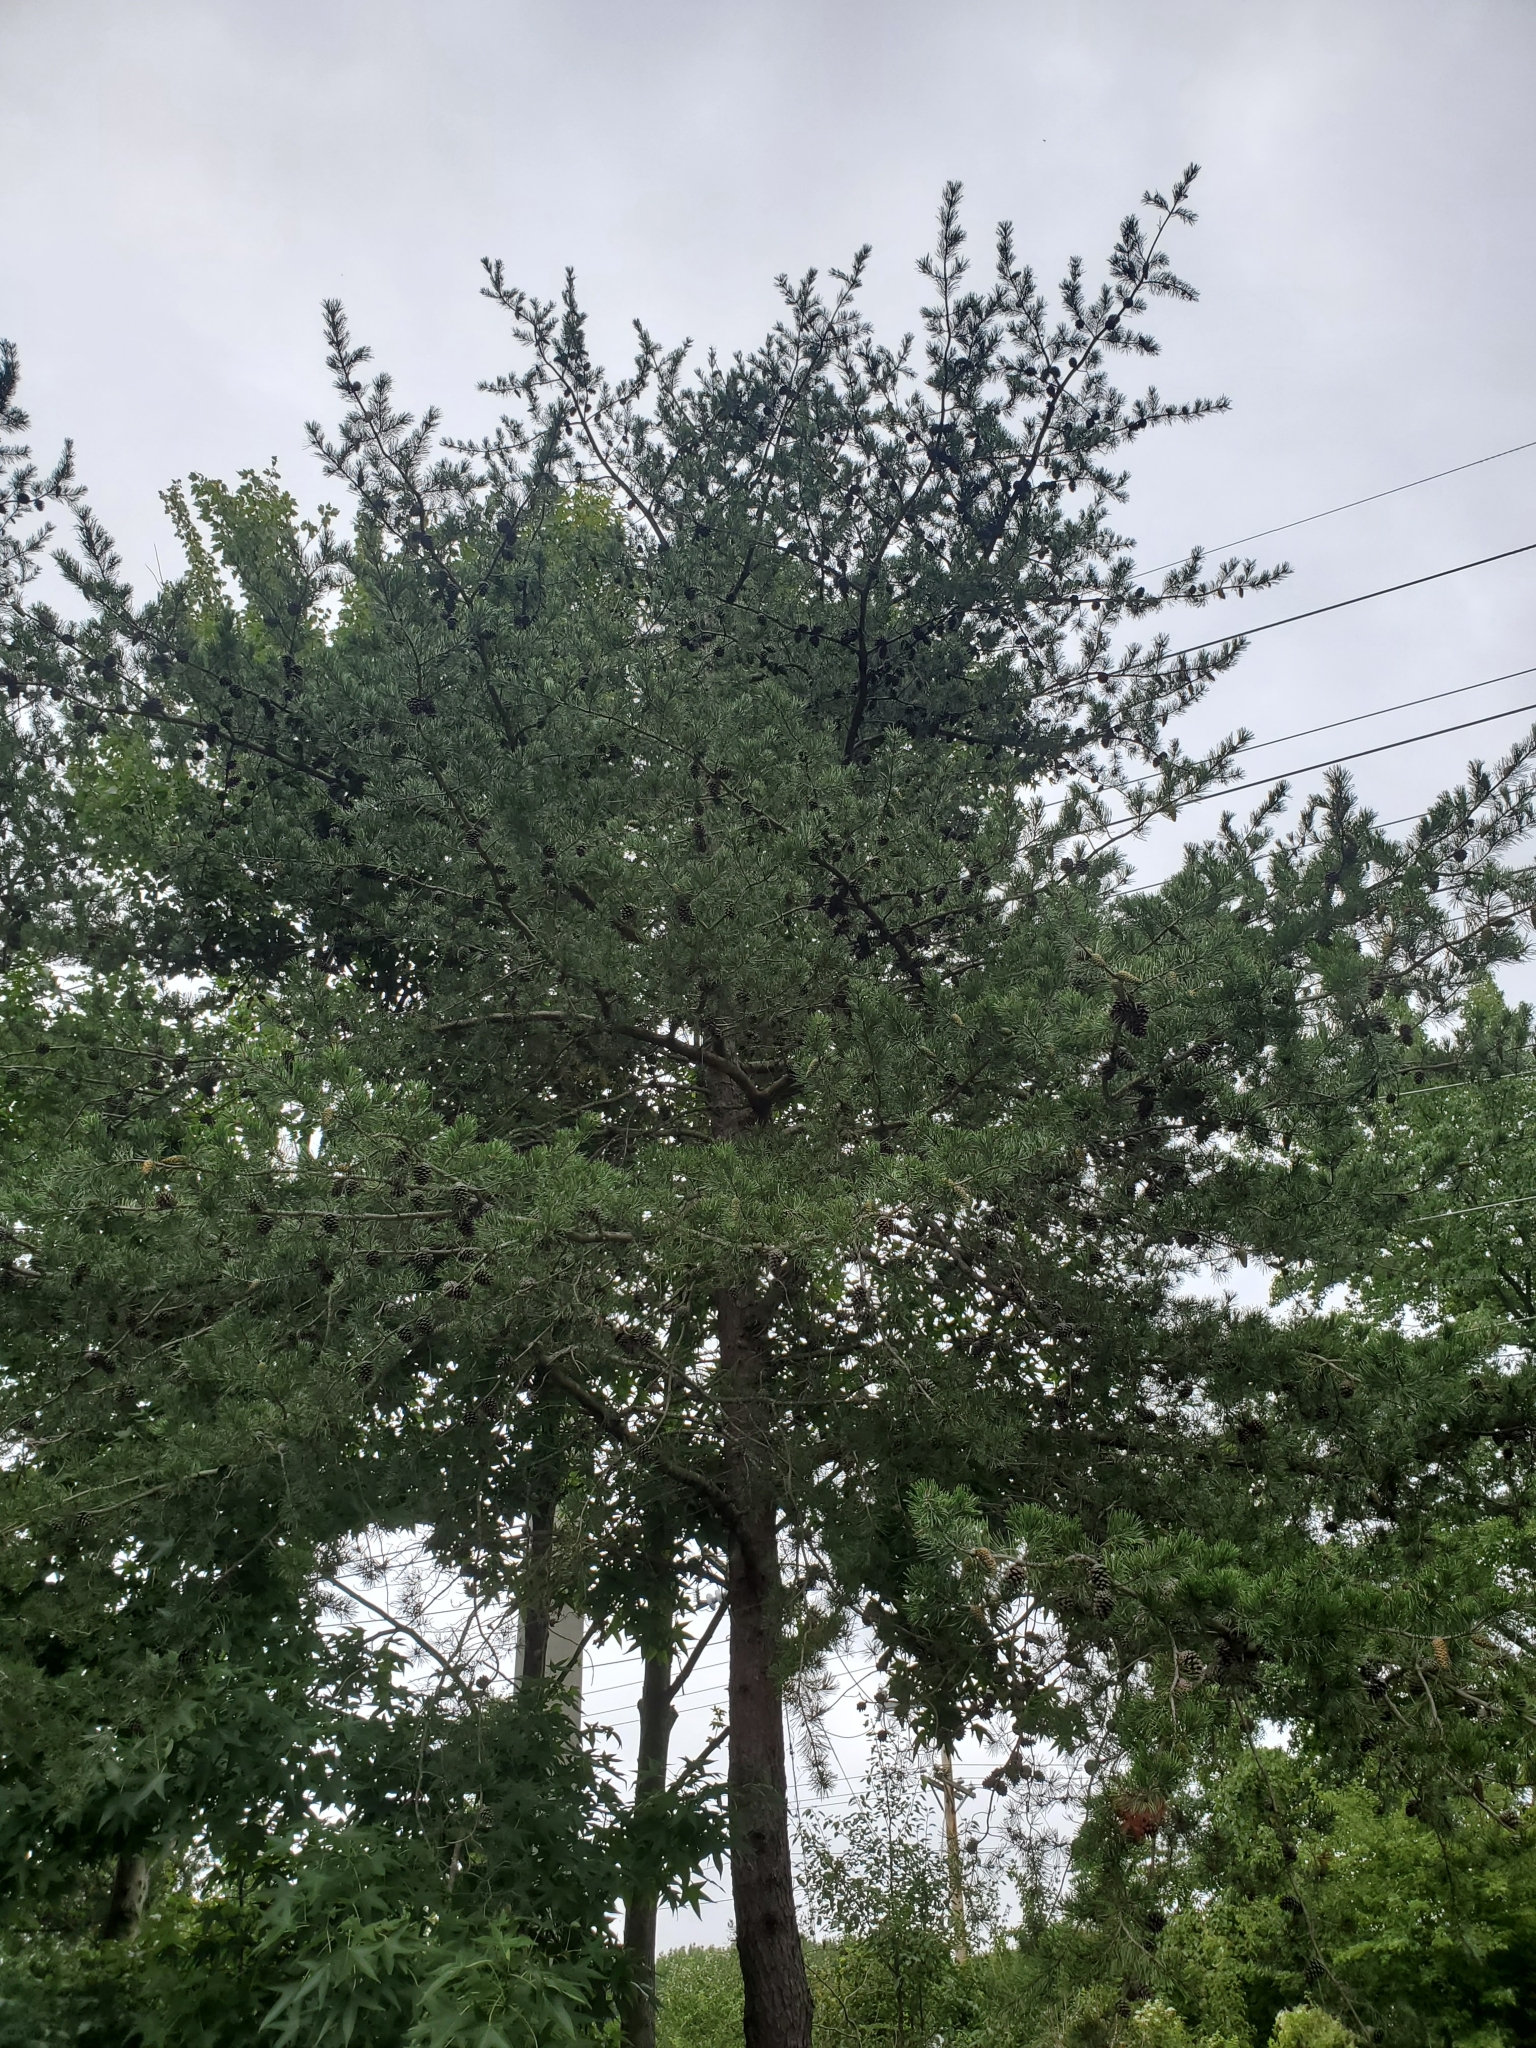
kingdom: Plantae
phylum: Tracheophyta
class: Pinopsida
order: Pinales
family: Pinaceae
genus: Pinus
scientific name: Pinus virginiana
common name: Scrub pine
